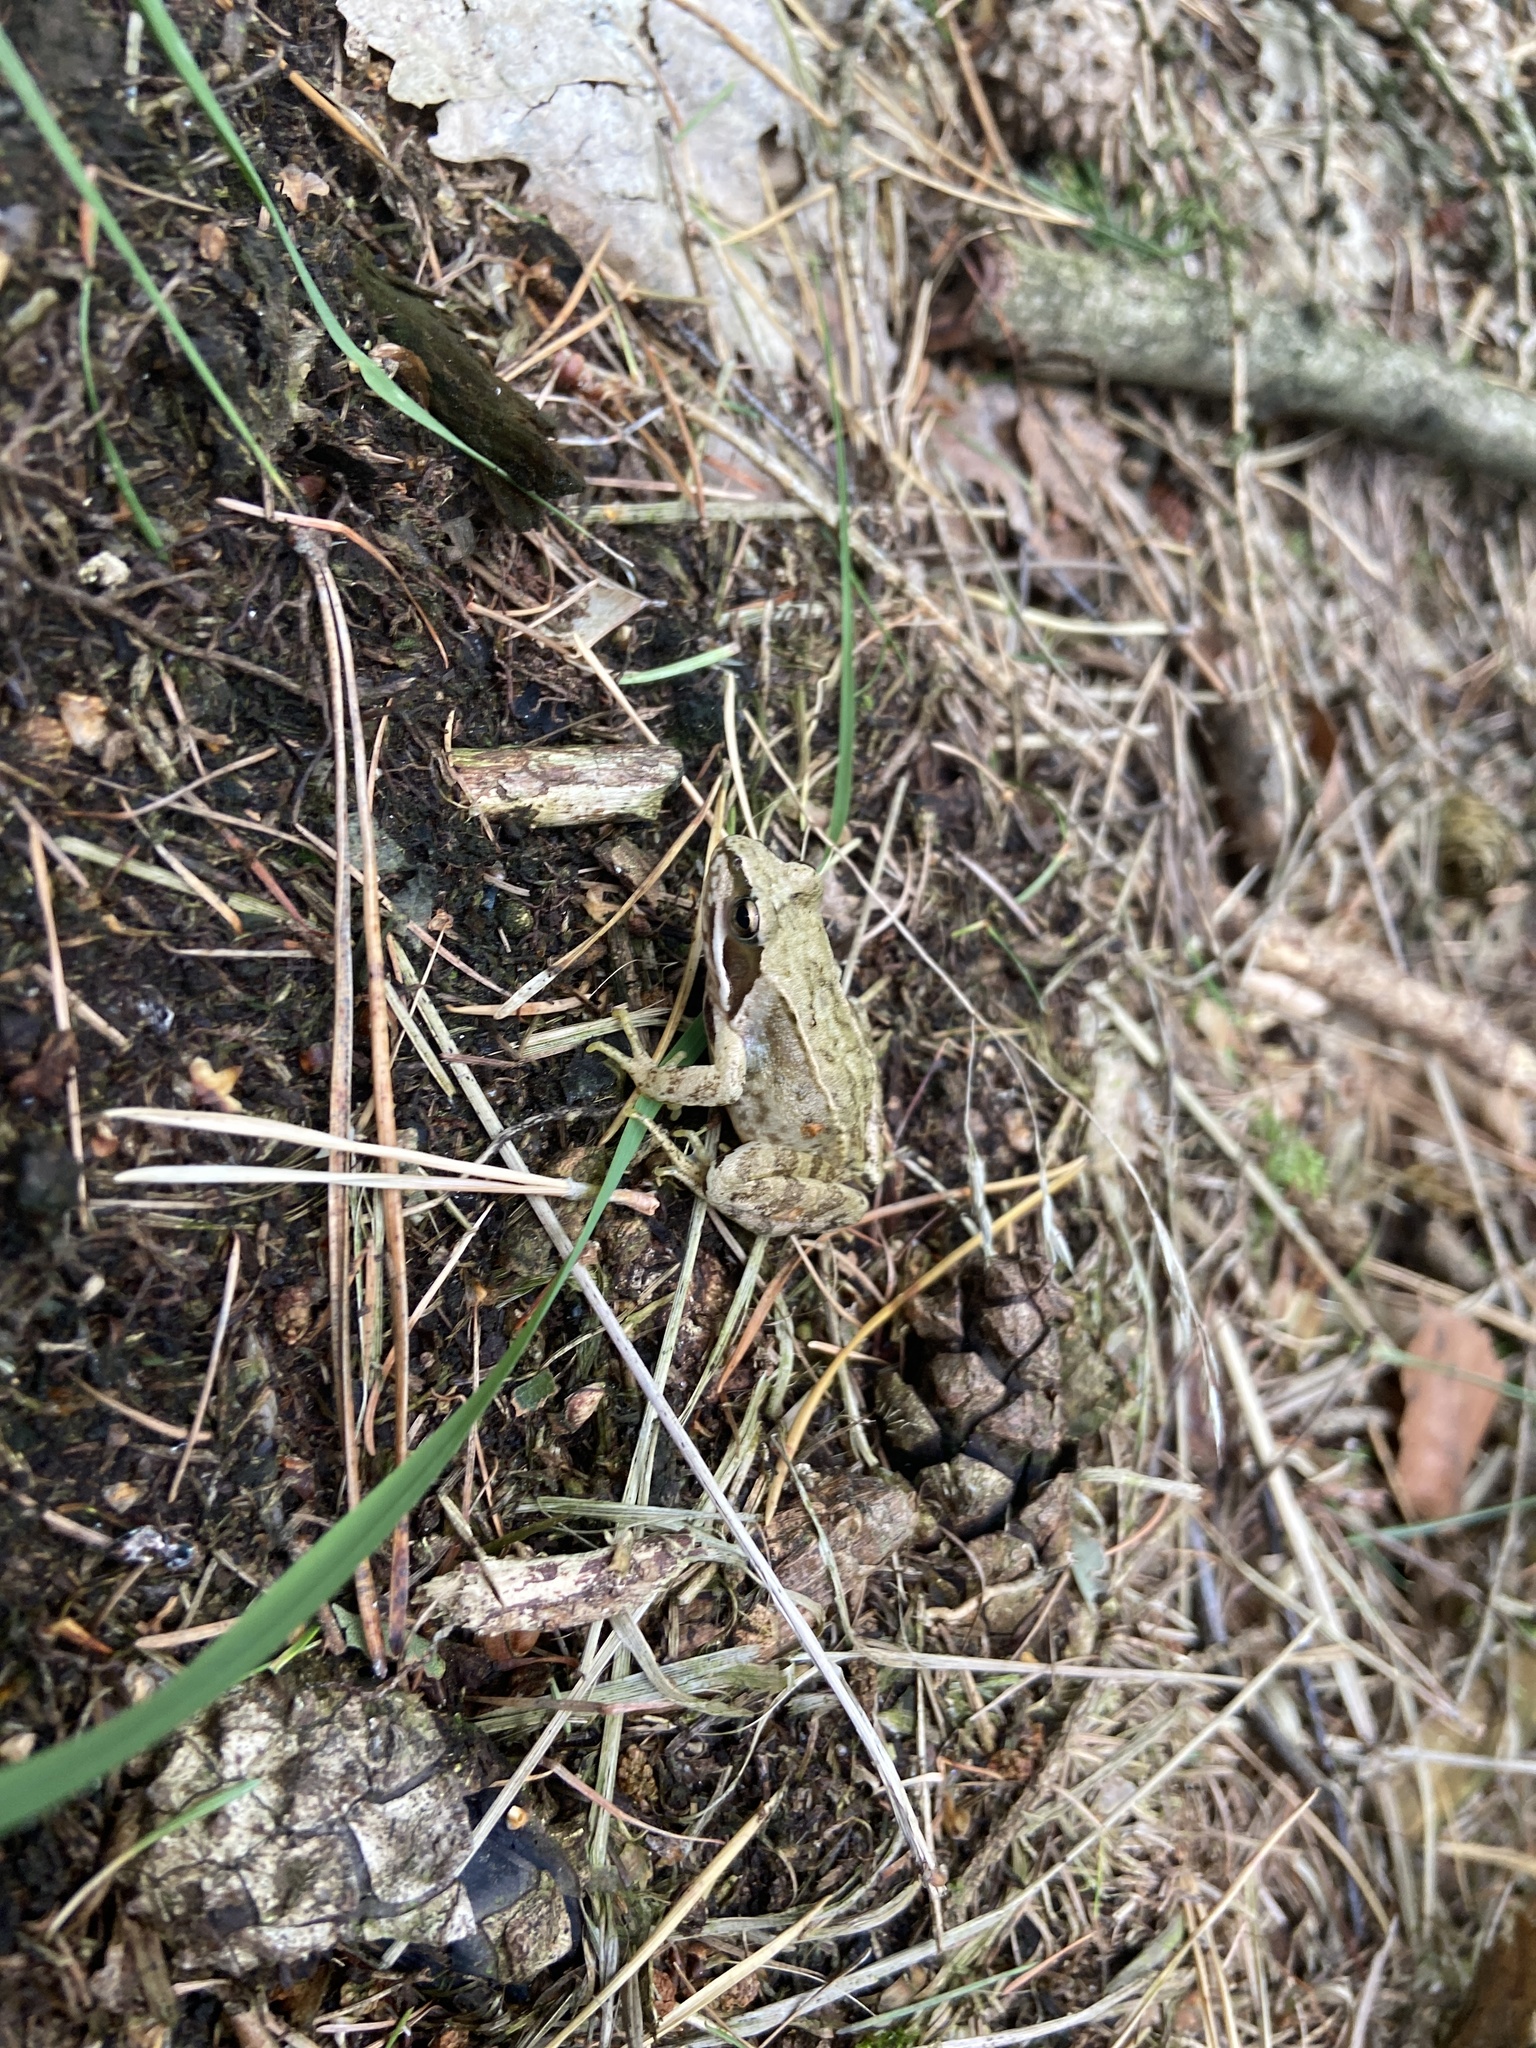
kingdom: Animalia
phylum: Chordata
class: Amphibia
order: Anura
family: Ranidae
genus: Rana
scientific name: Rana temporaria
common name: Common frog
